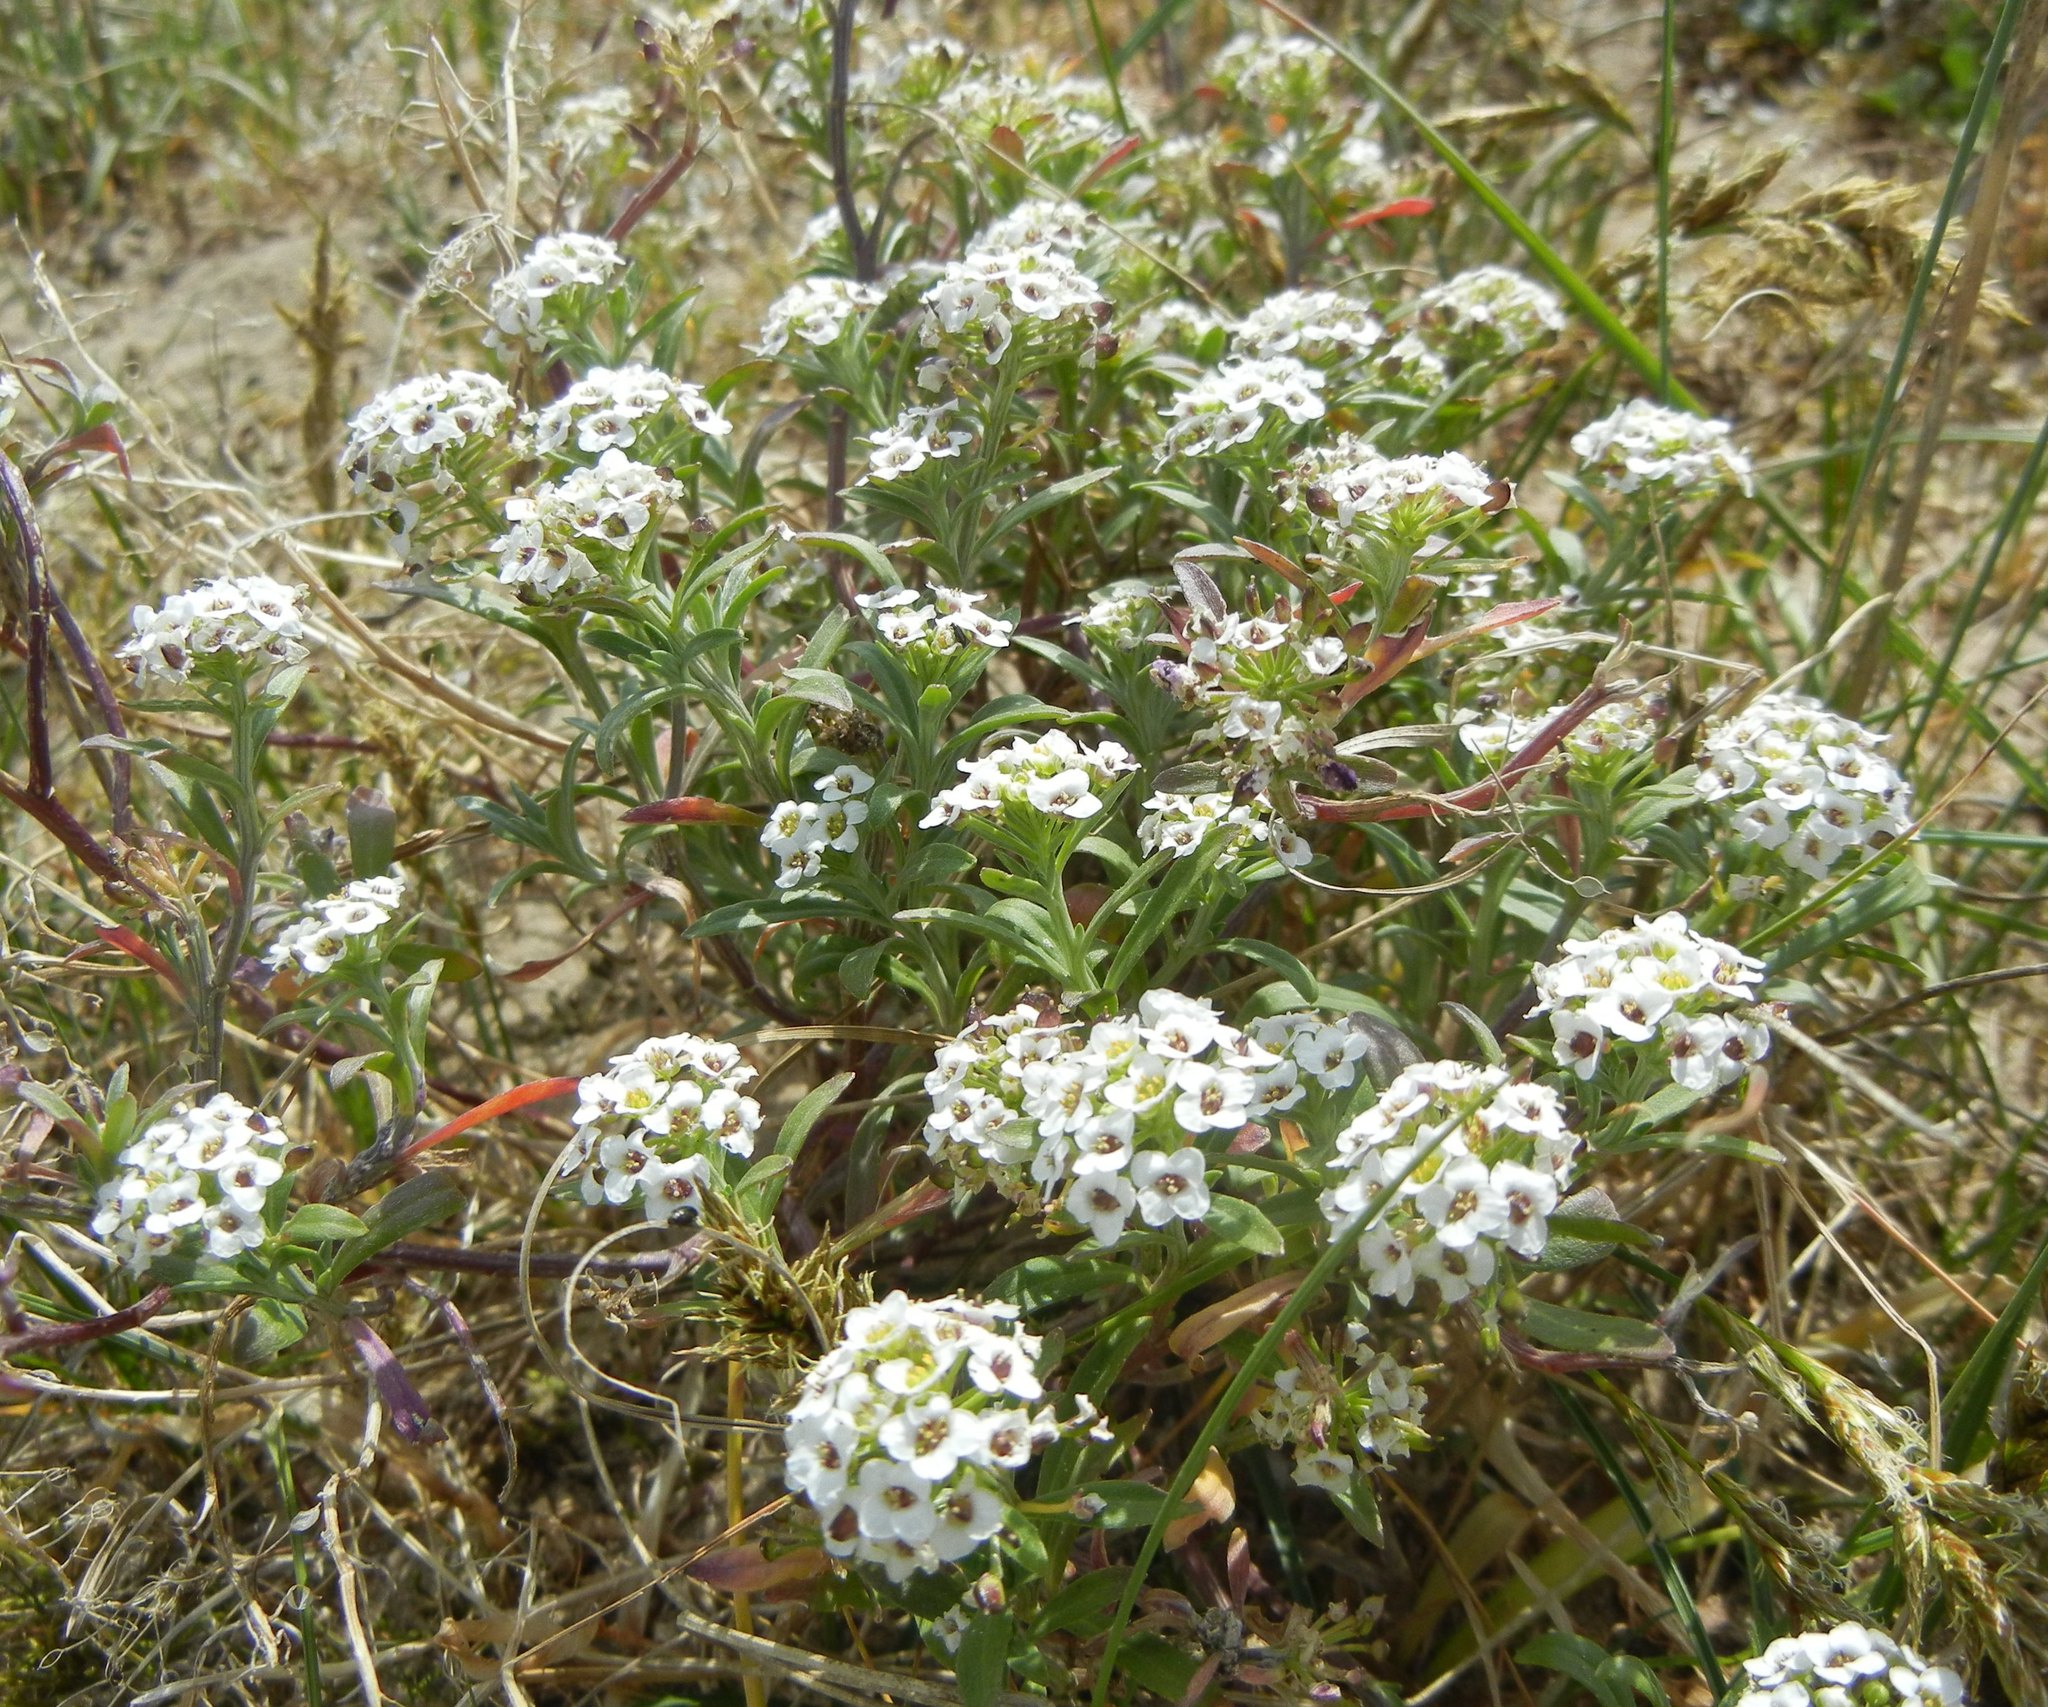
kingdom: Plantae
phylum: Tracheophyta
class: Magnoliopsida
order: Brassicales
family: Brassicaceae
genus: Lobularia
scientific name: Lobularia maritima
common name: Sweet alison
